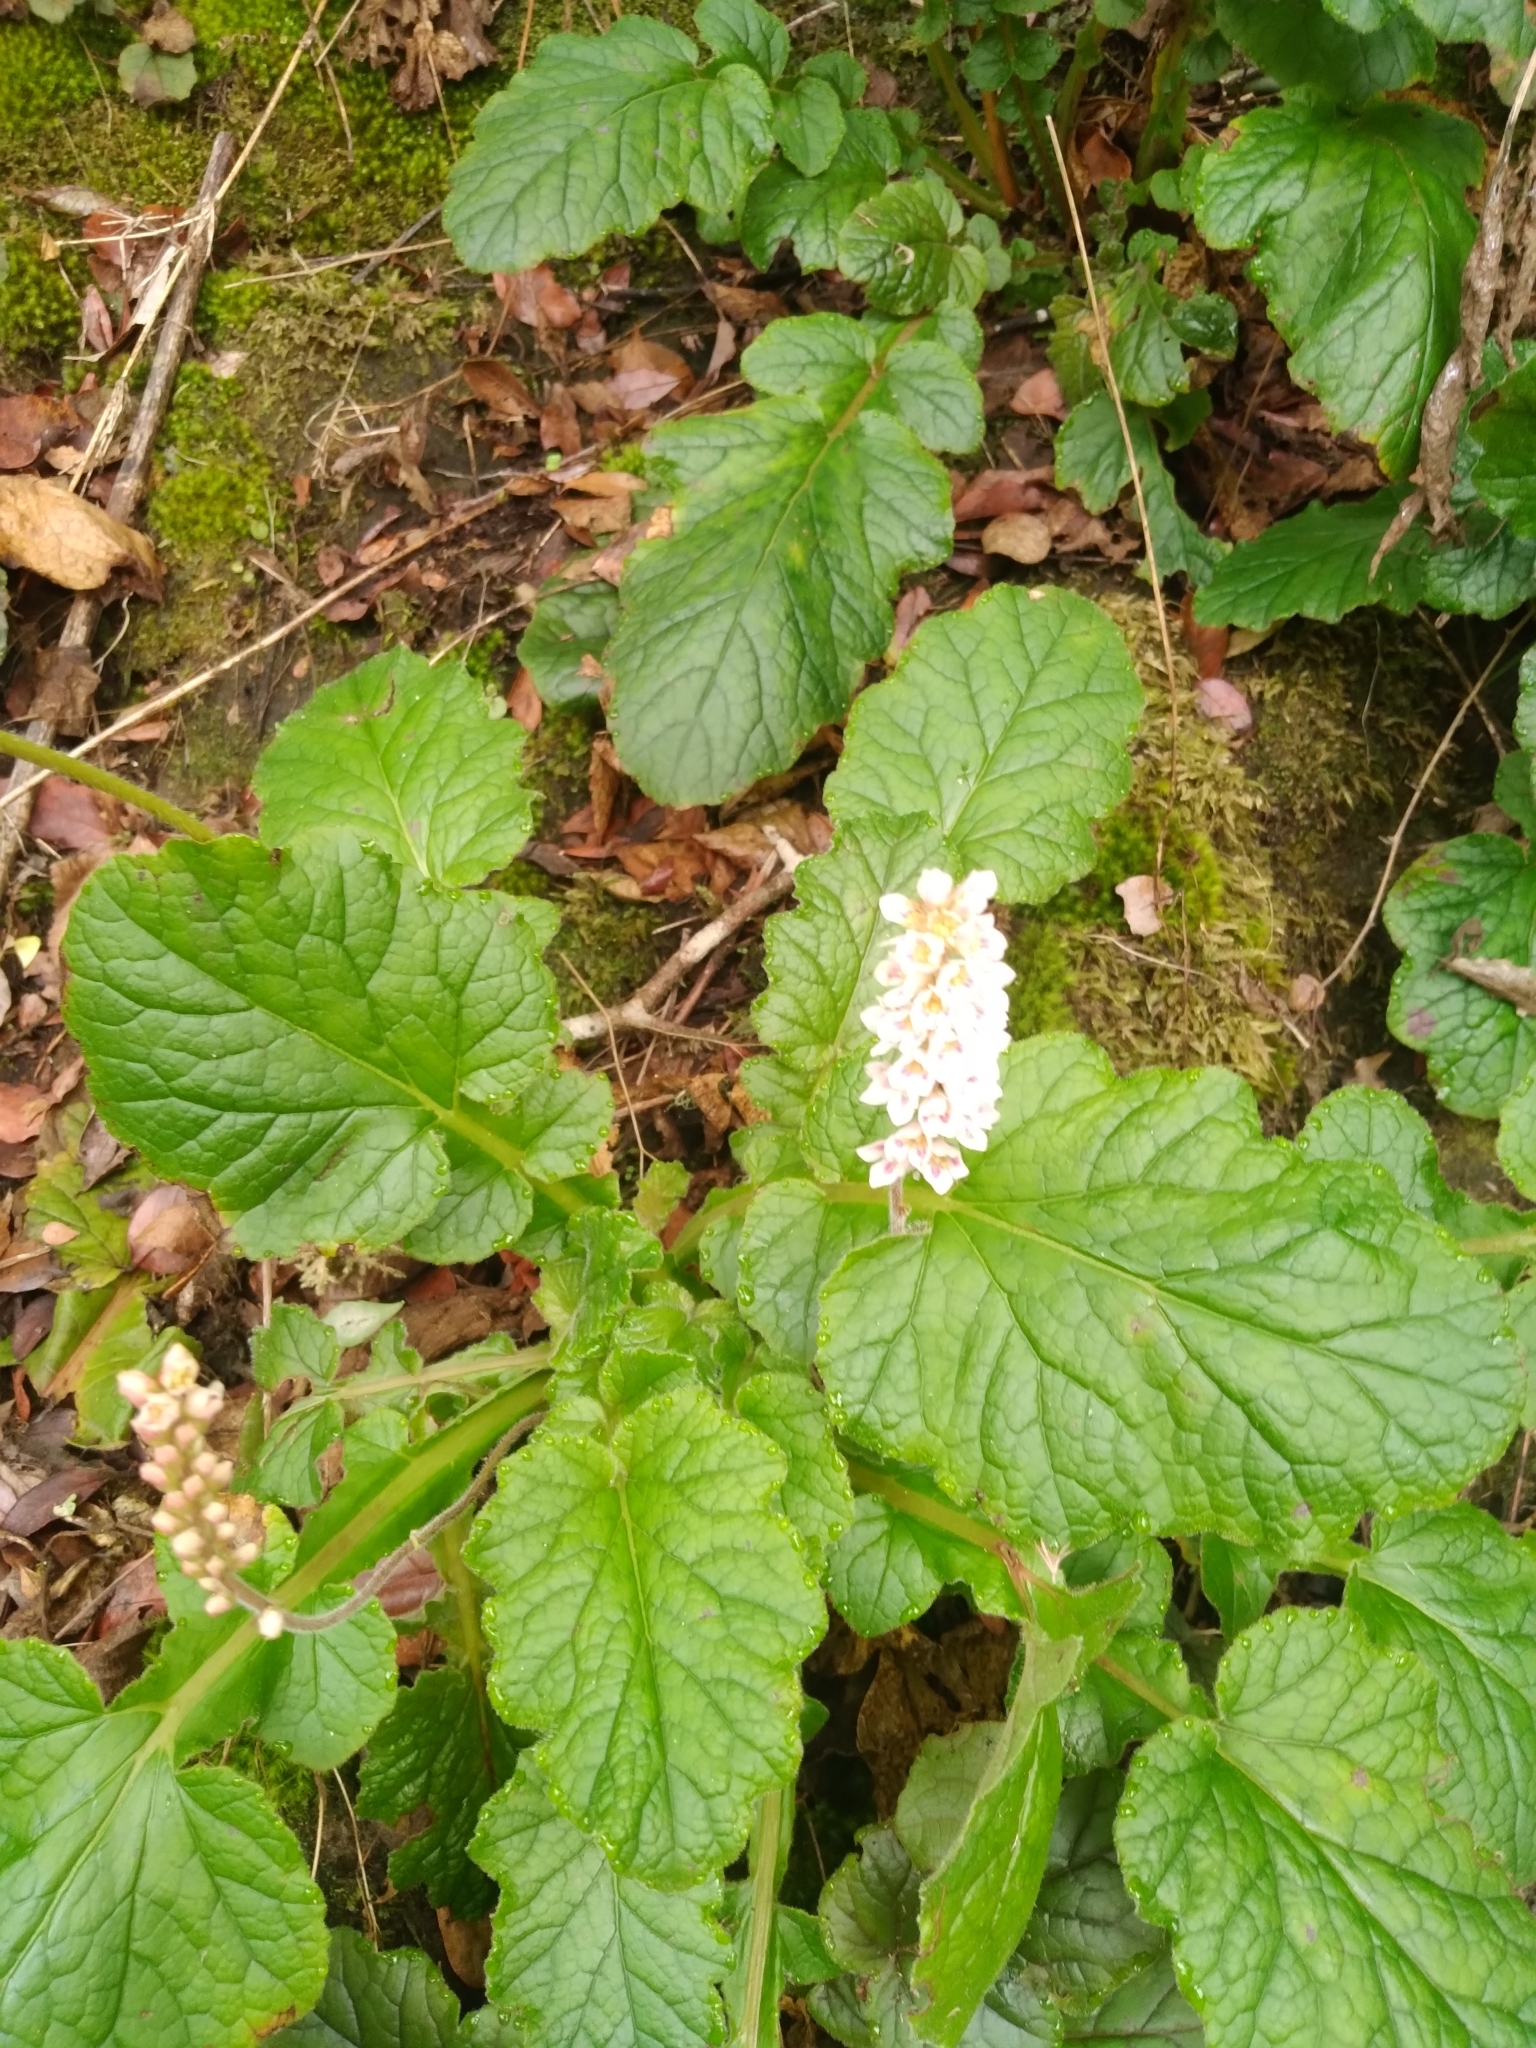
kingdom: Plantae
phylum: Tracheophyta
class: Magnoliopsida
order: Geraniales
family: Francoaceae
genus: Francoa
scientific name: Francoa appendiculata
